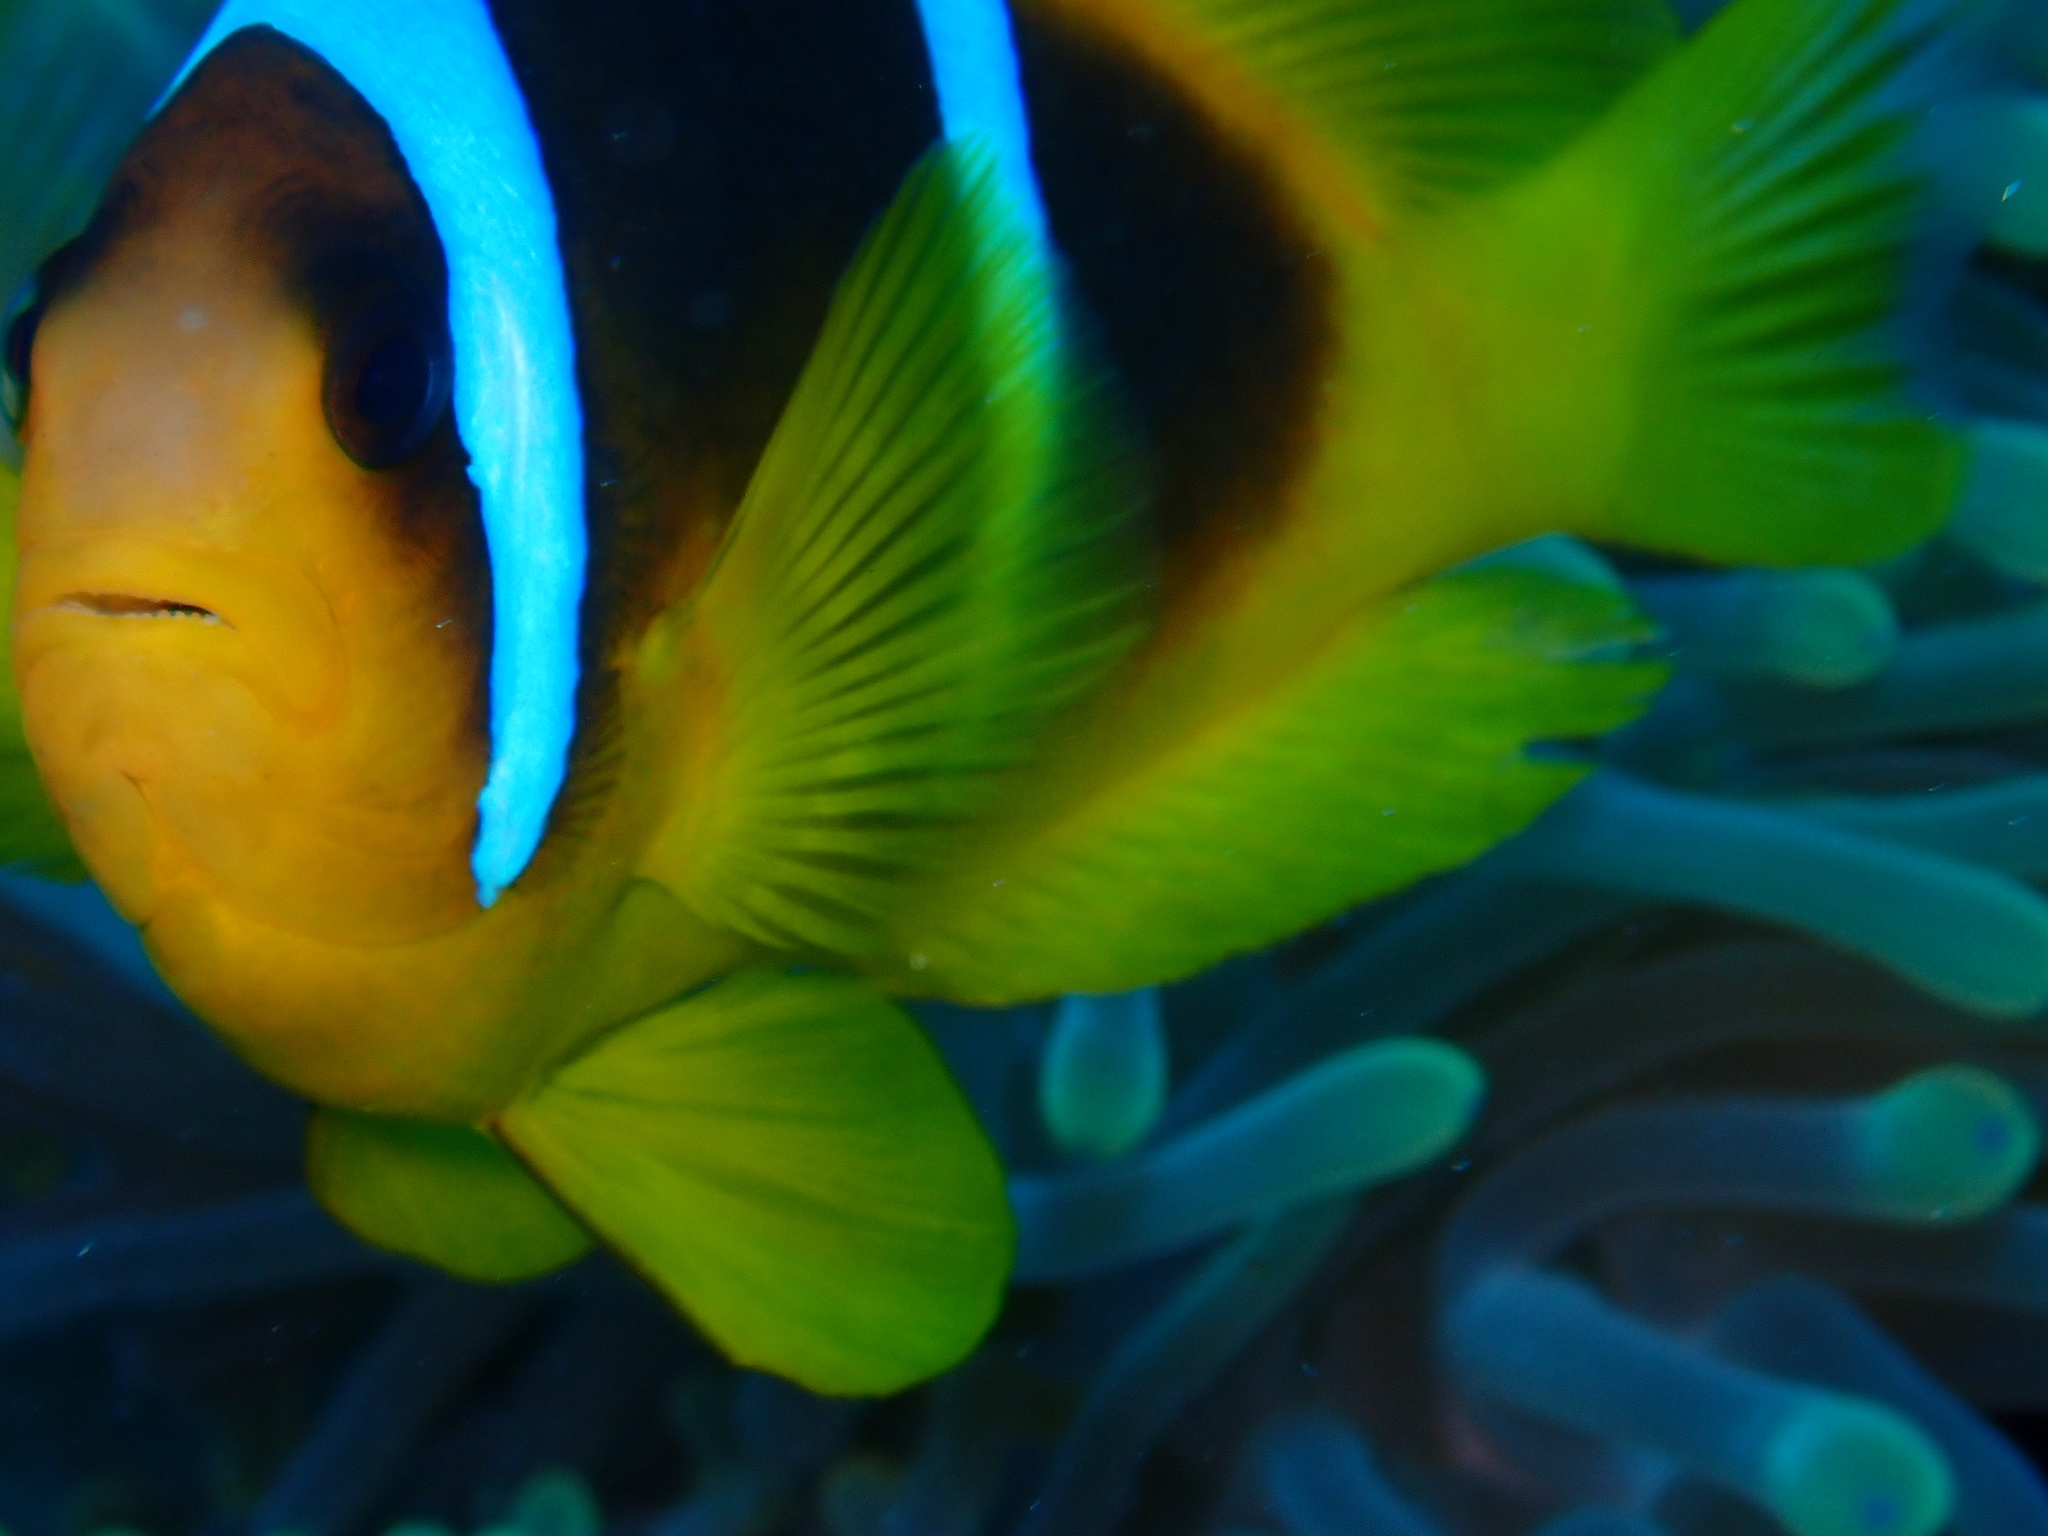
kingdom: Animalia
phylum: Chordata
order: Perciformes
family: Pomacentridae
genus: Amphiprion
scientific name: Amphiprion bicinctus
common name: Two-banded anemonefish
